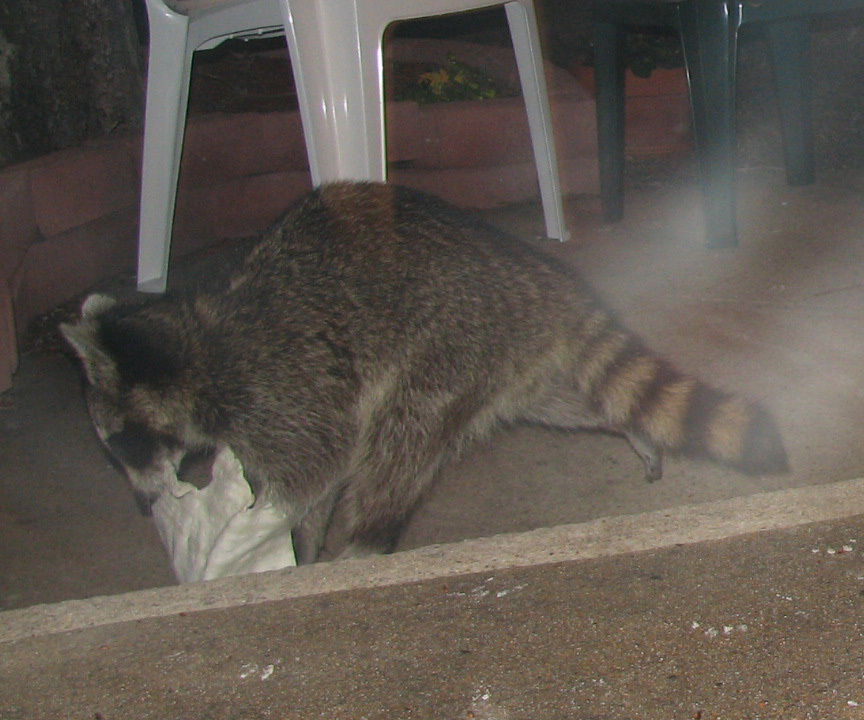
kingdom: Animalia
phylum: Chordata
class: Mammalia
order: Carnivora
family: Procyonidae
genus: Procyon
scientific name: Procyon lotor
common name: Raccoon
